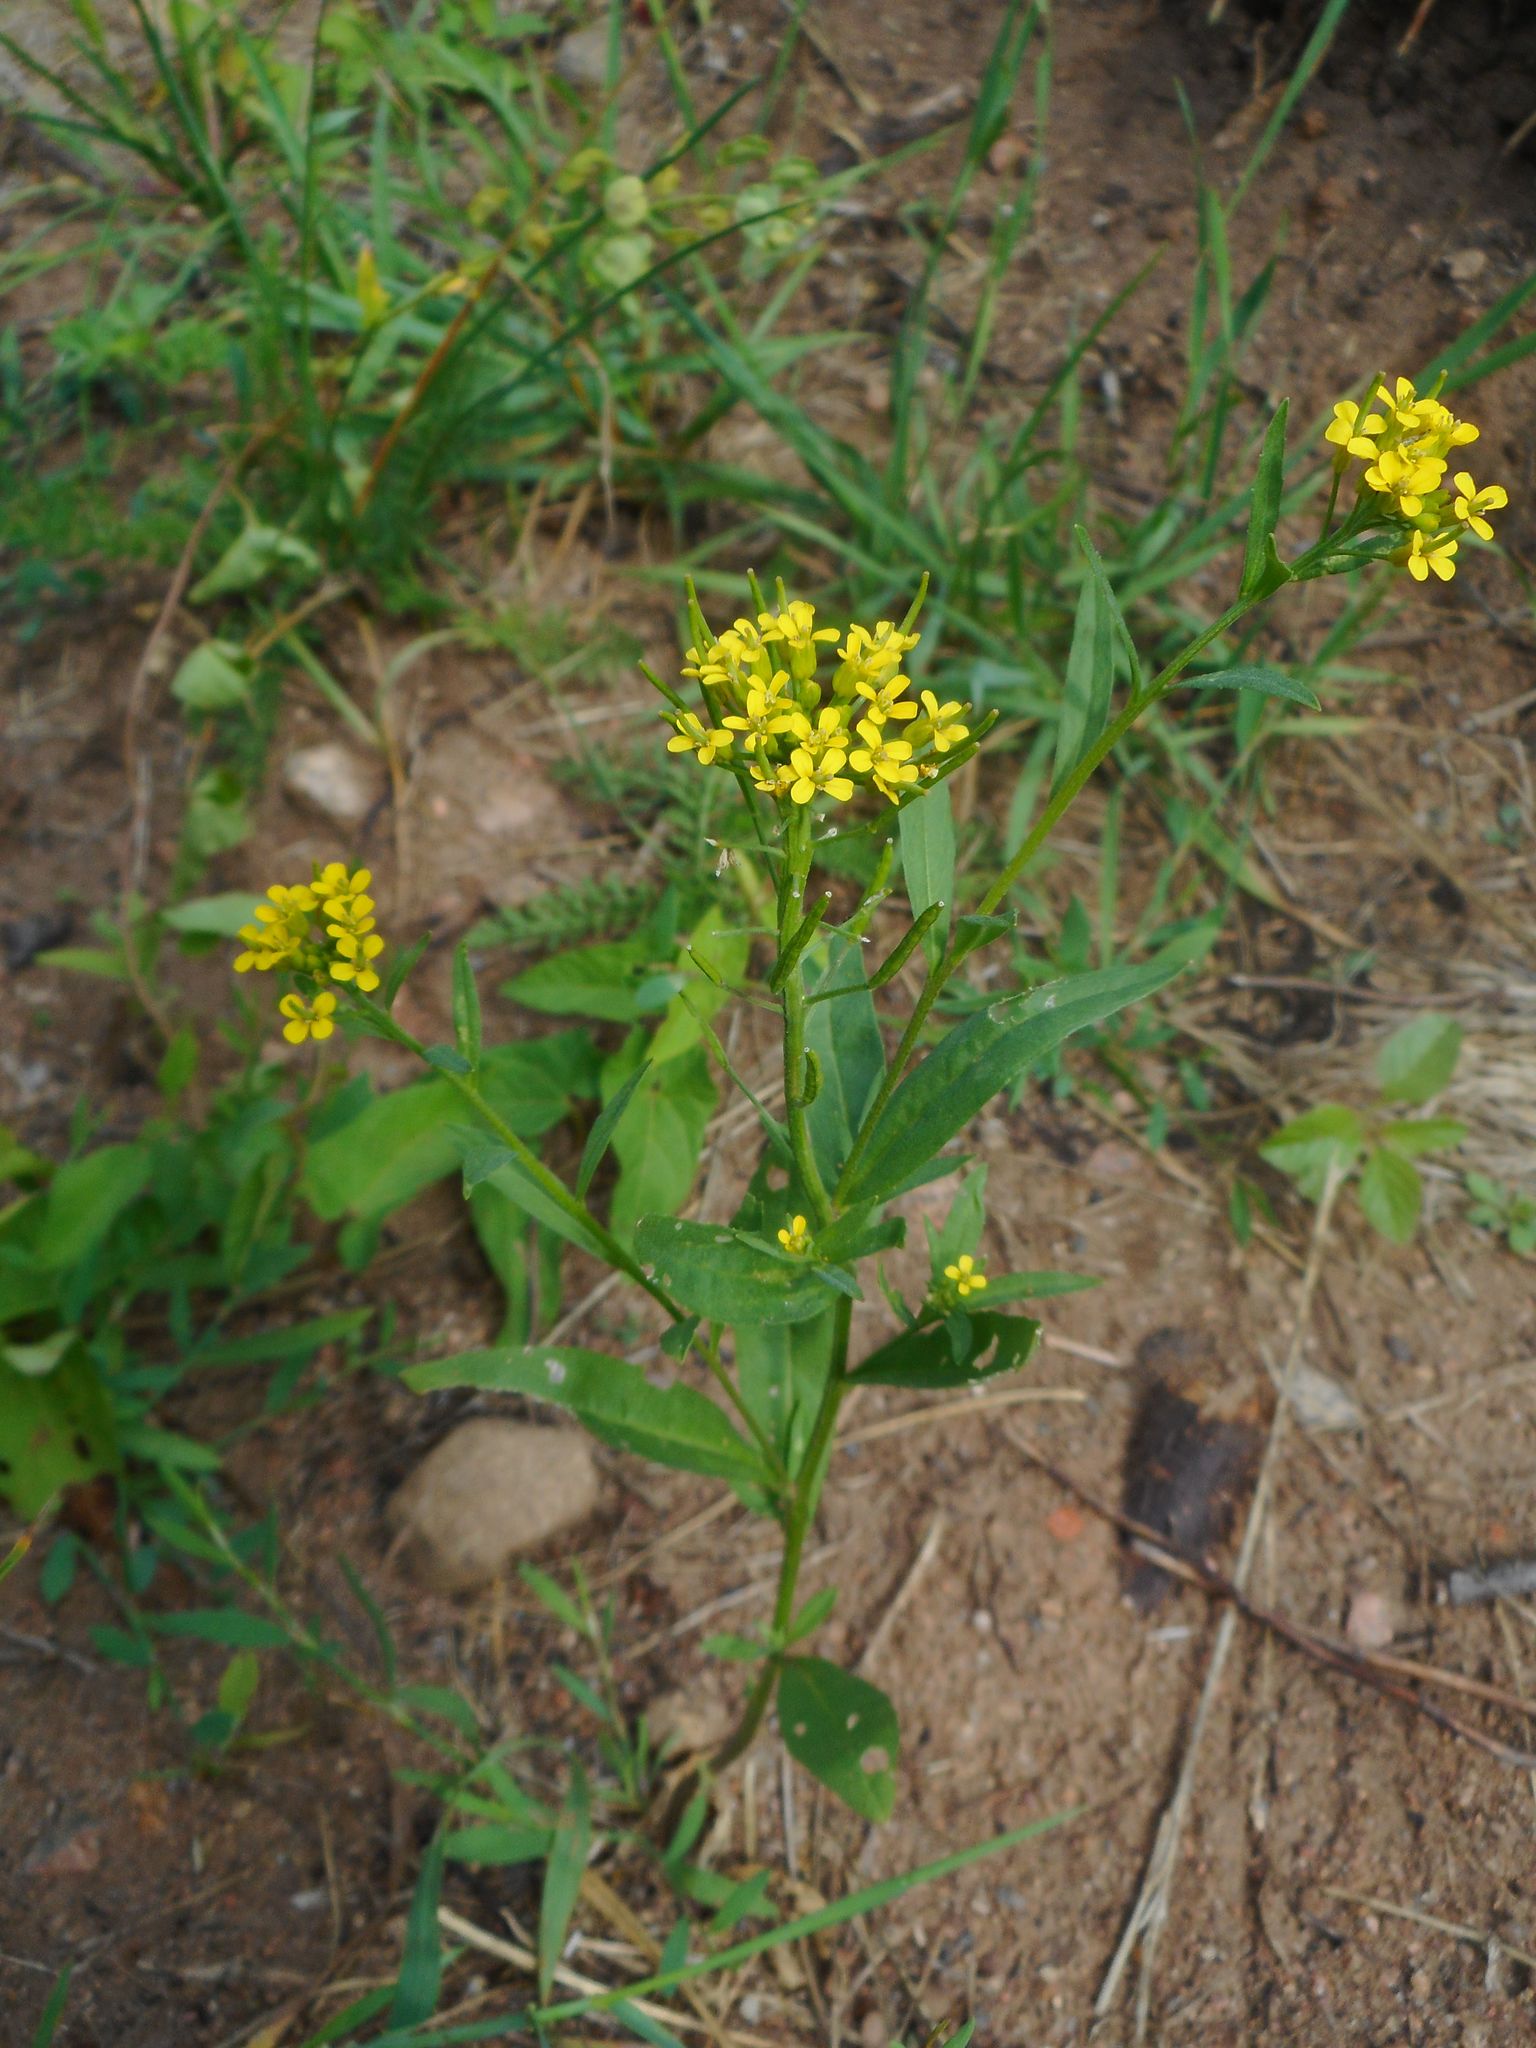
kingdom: Plantae
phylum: Tracheophyta
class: Magnoliopsida
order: Brassicales
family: Brassicaceae
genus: Erysimum
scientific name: Erysimum cheiranthoides
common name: Treacle mustard
